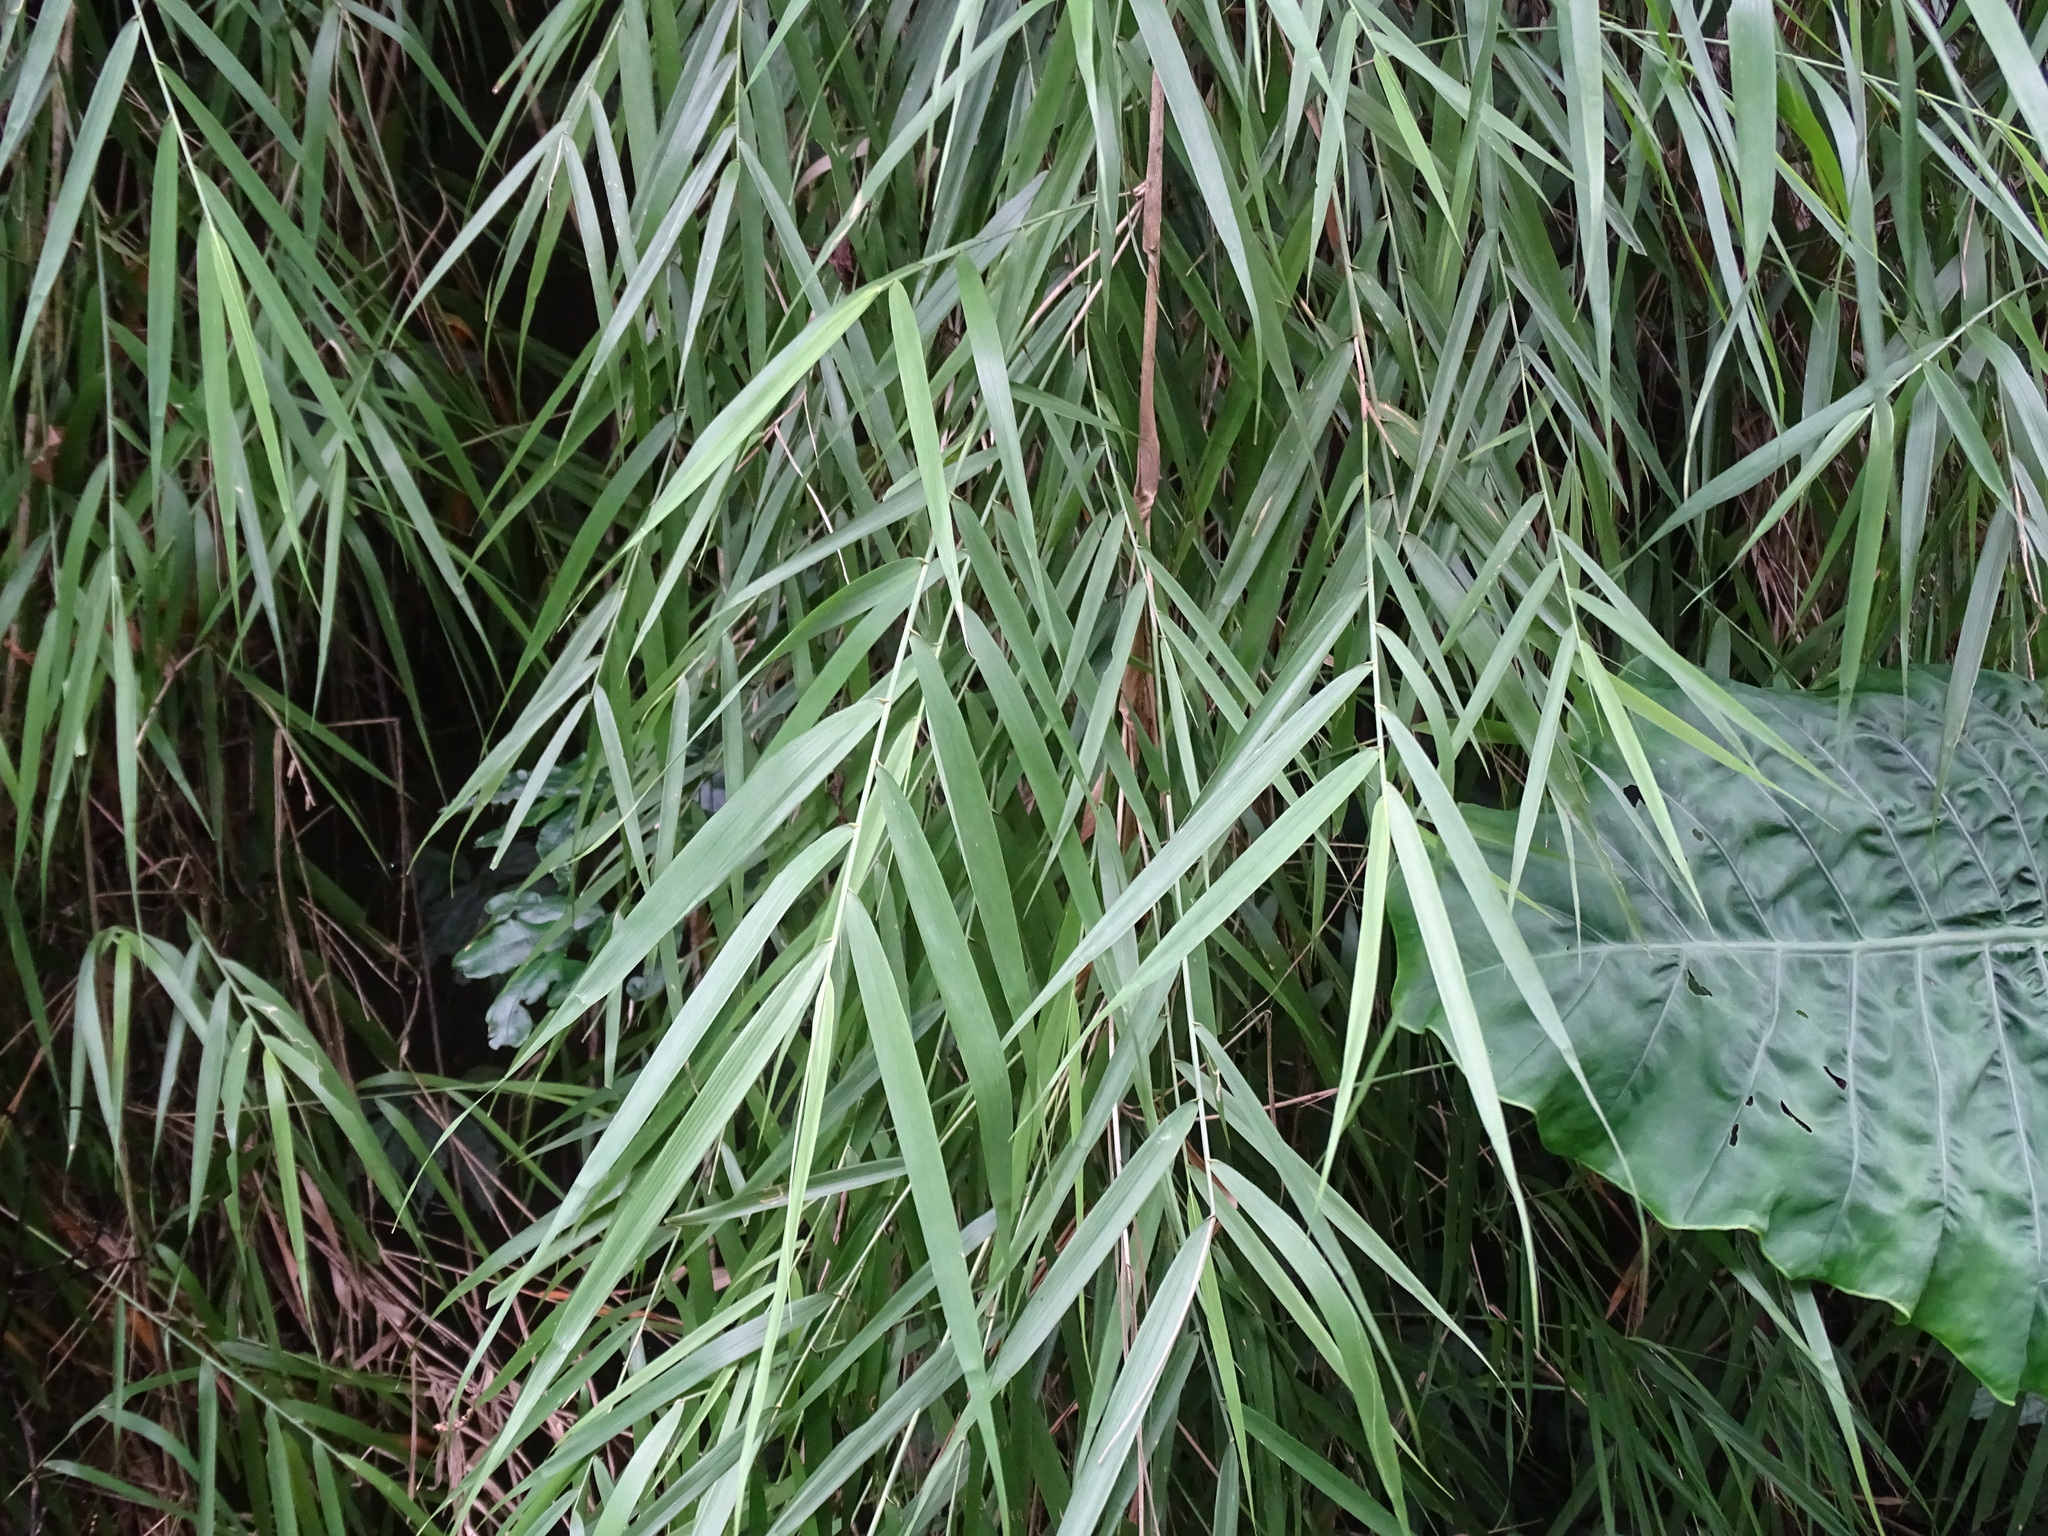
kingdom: Plantae
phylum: Tracheophyta
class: Liliopsida
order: Poales
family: Poaceae
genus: Arundo
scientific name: Arundo formosana
